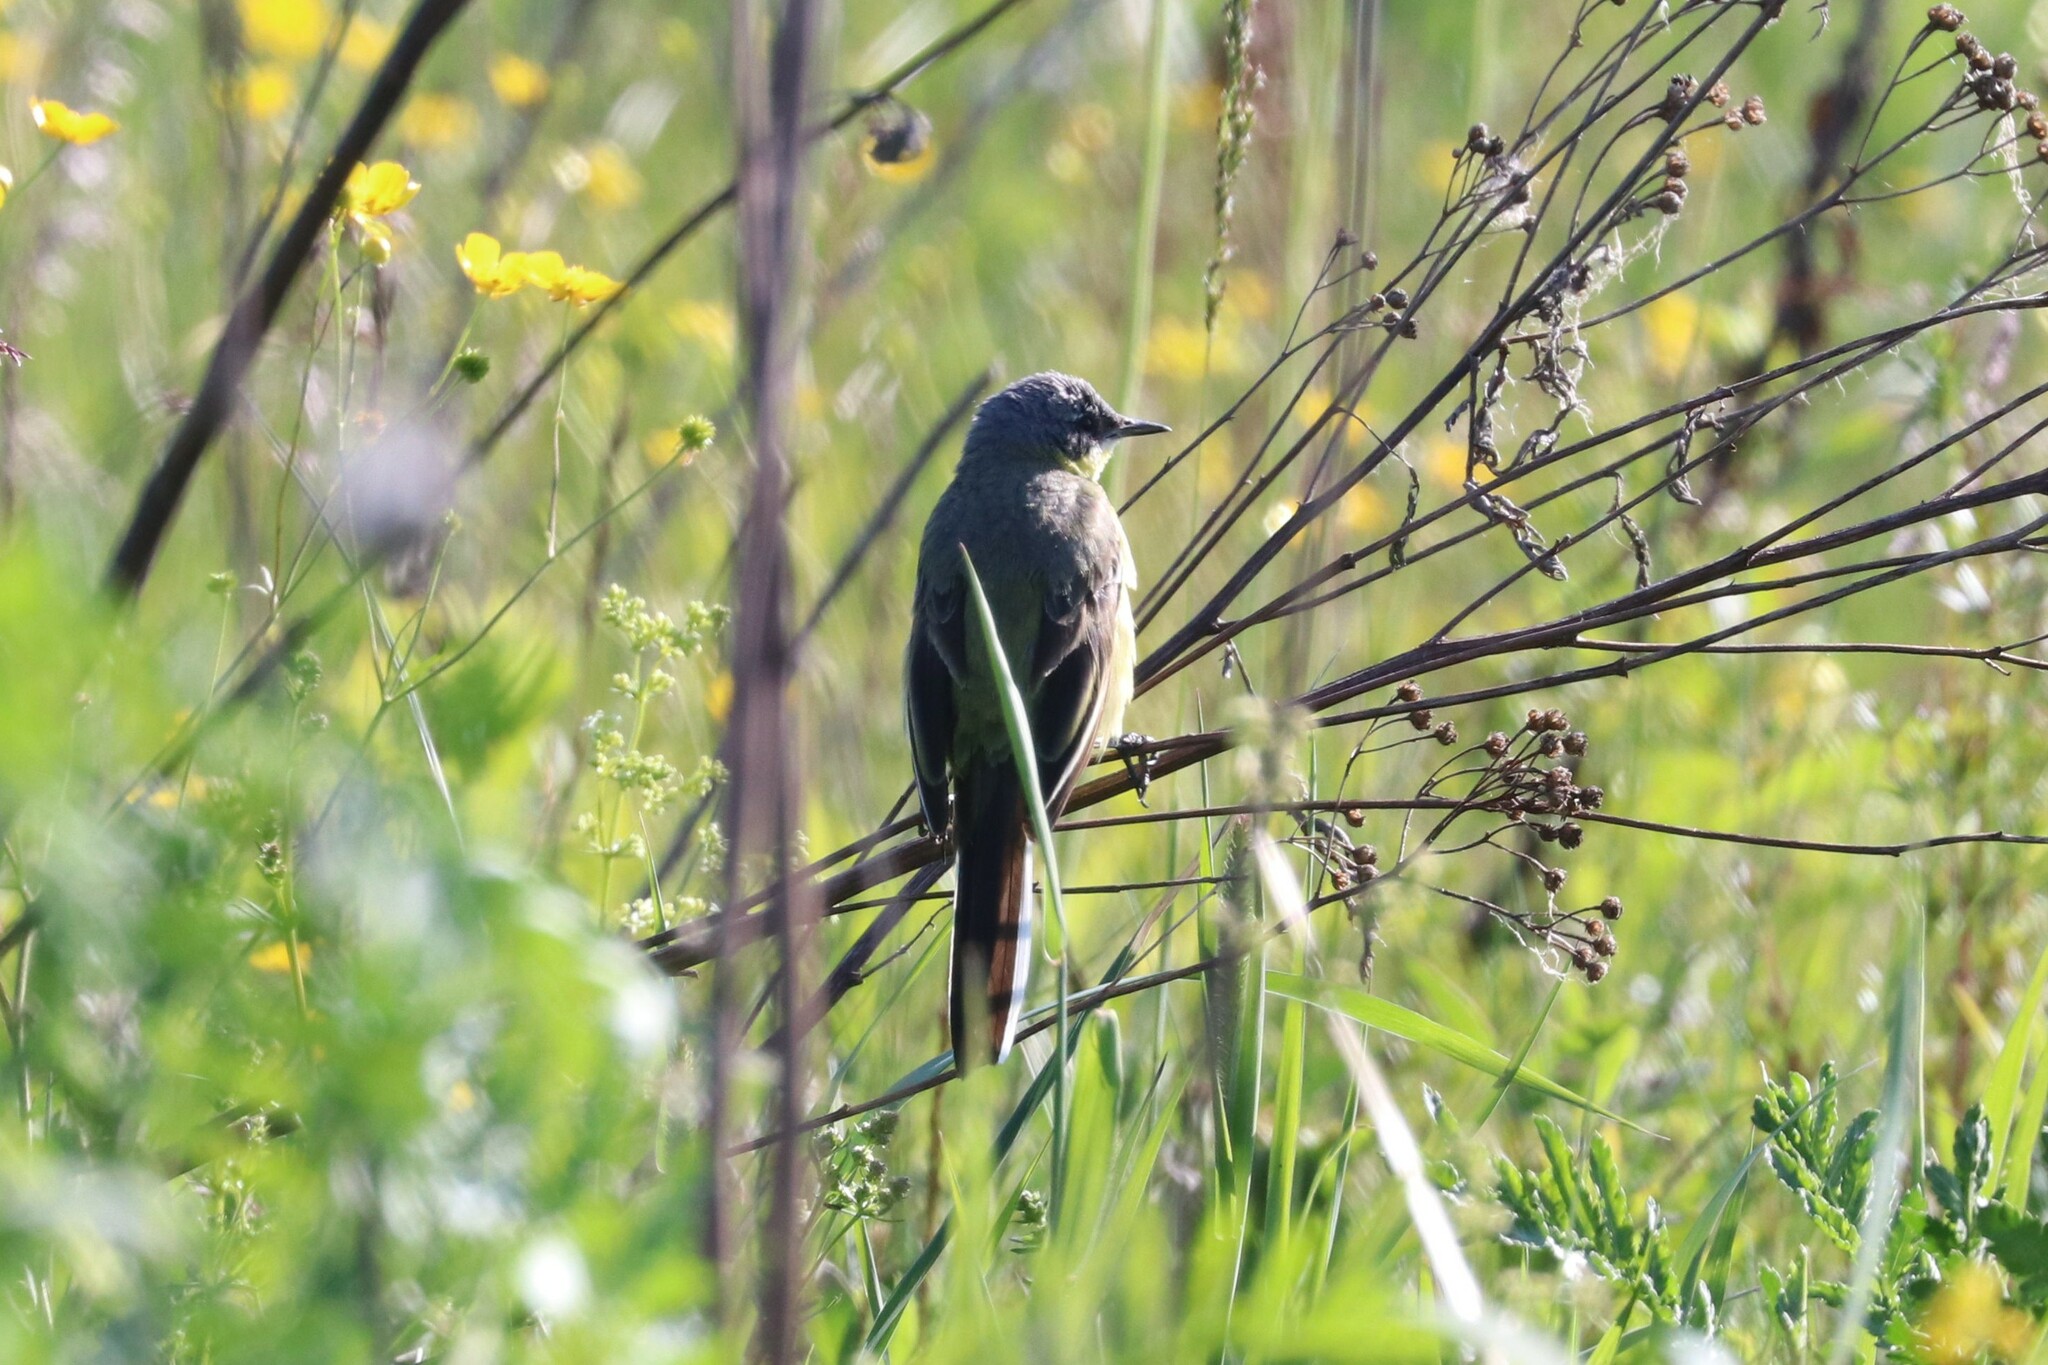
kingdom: Animalia
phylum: Chordata
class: Aves
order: Passeriformes
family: Motacillidae
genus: Motacilla
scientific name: Motacilla flava
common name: Western yellow wagtail
